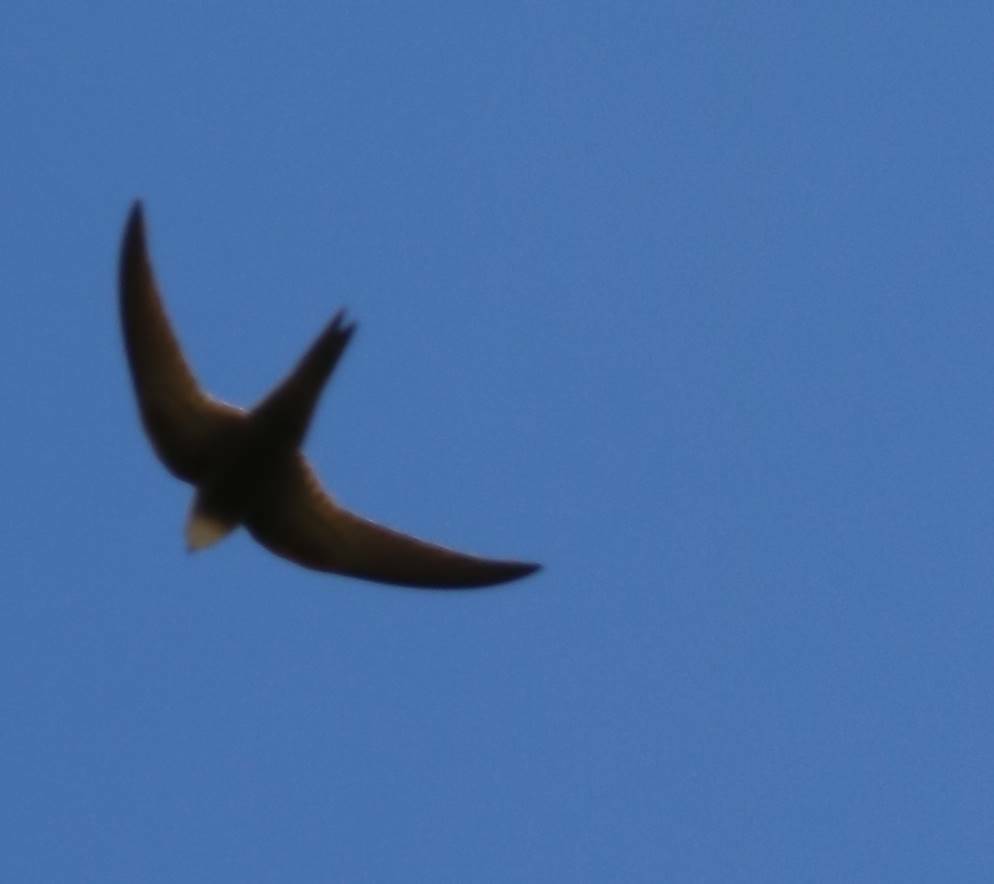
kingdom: Animalia
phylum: Chordata
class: Aves
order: Apodiformes
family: Apodidae
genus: Apus
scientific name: Apus pallidus
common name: Pallid swift
